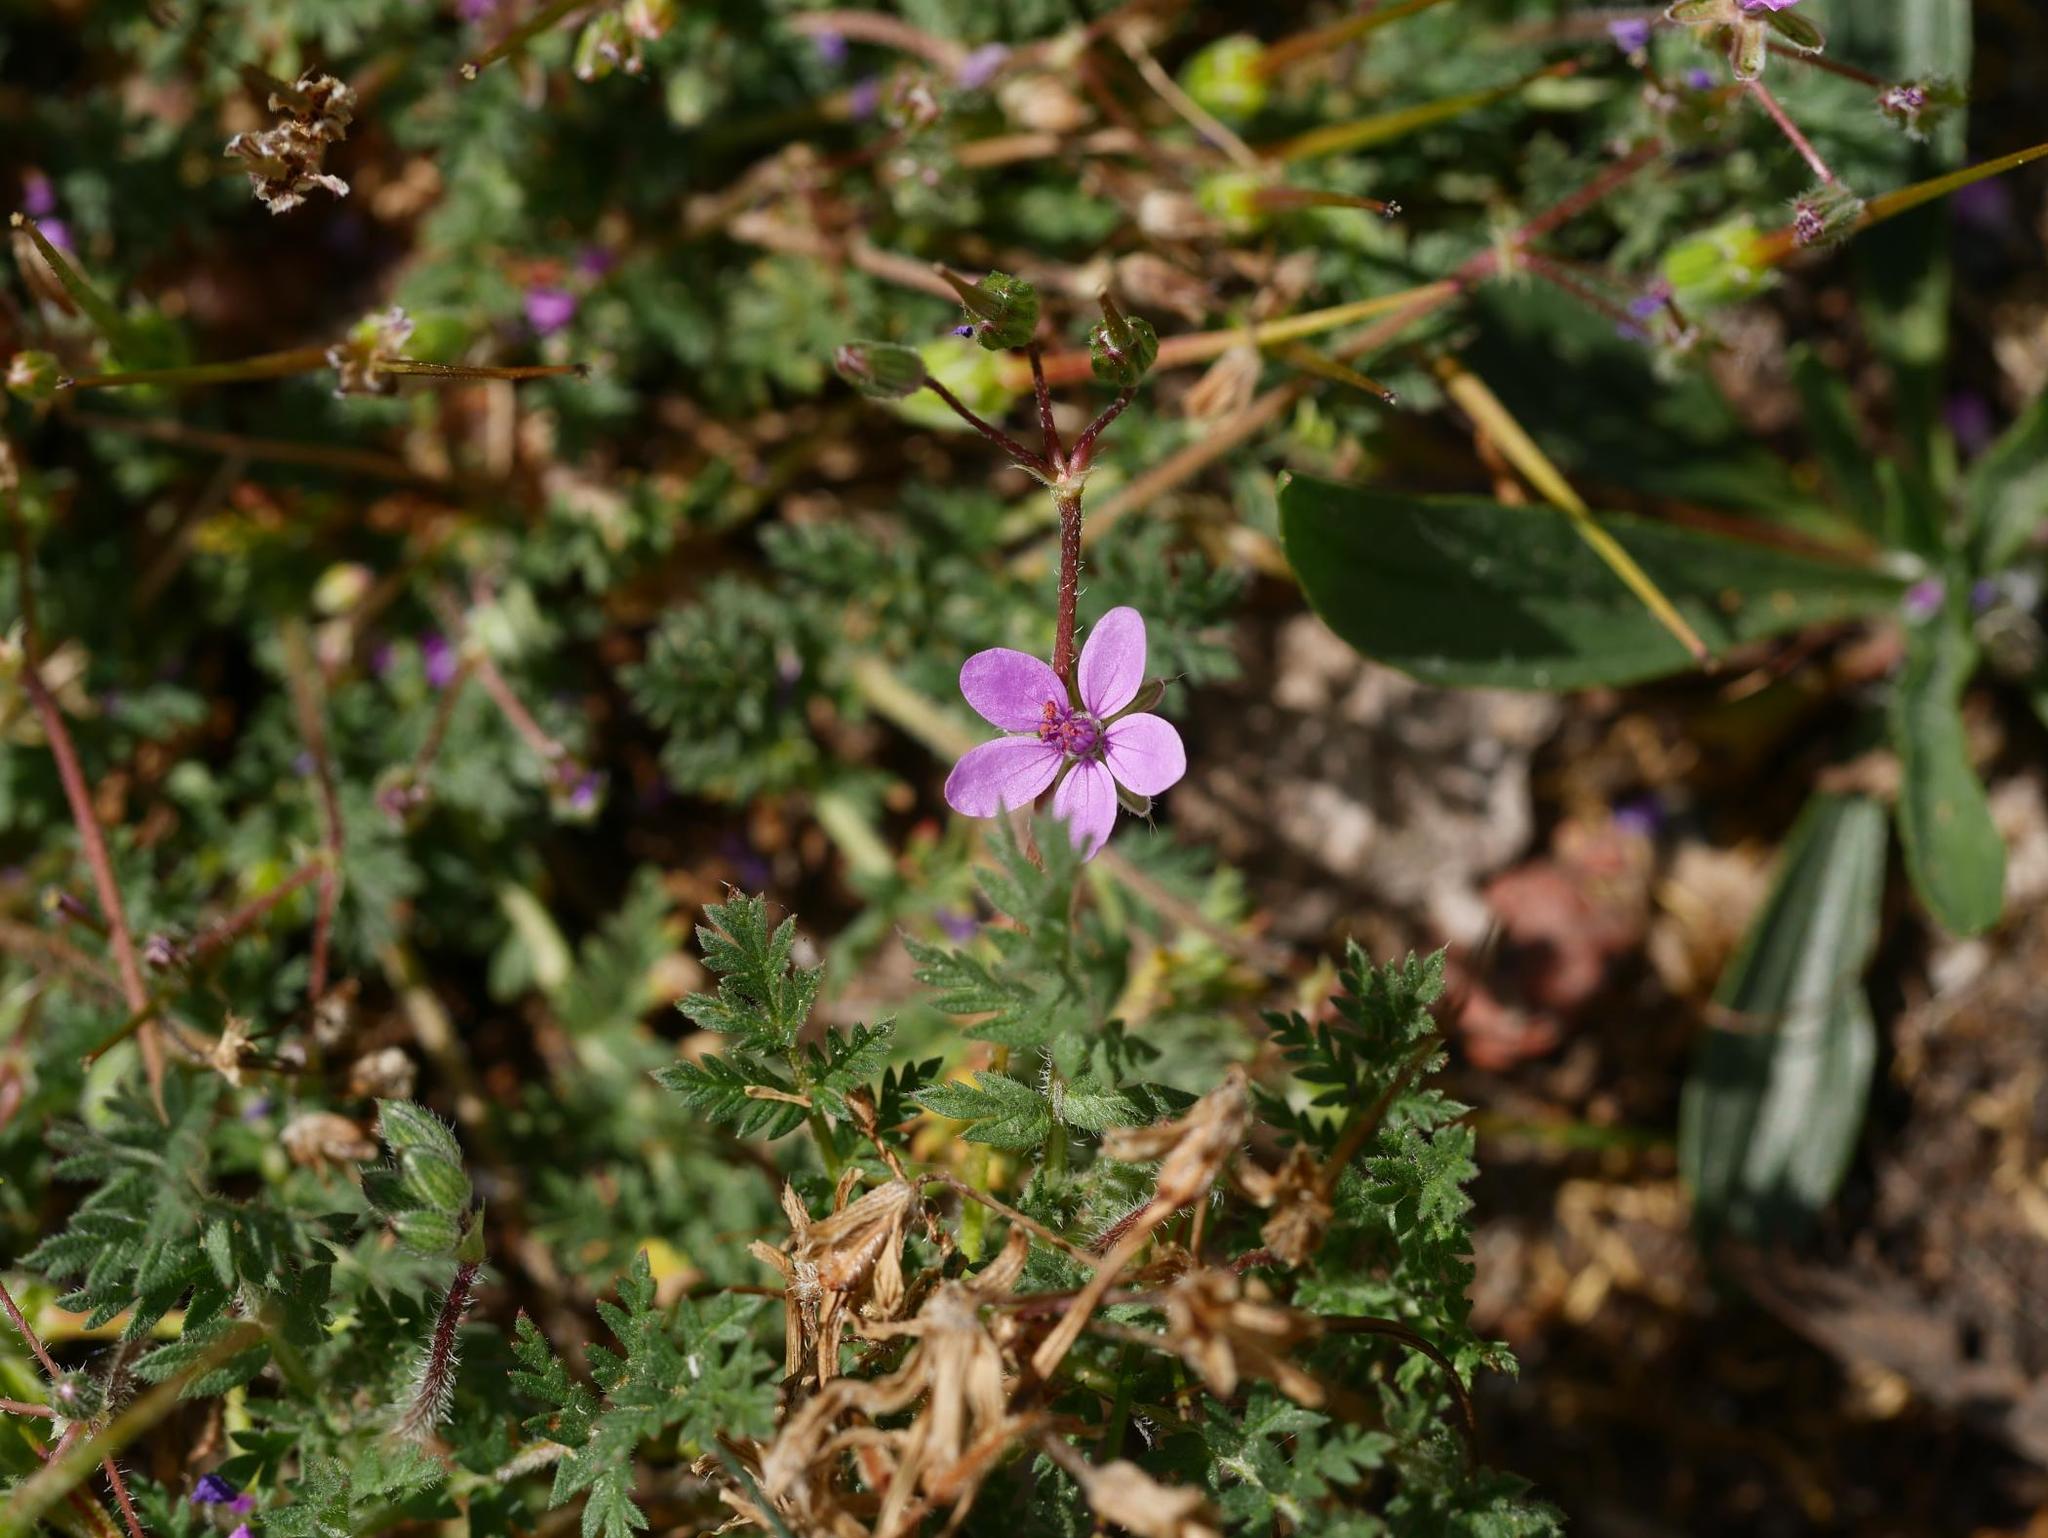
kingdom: Plantae
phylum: Tracheophyta
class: Magnoliopsida
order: Geraniales
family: Geraniaceae
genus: Erodium
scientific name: Erodium cicutarium
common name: Common stork's-bill
